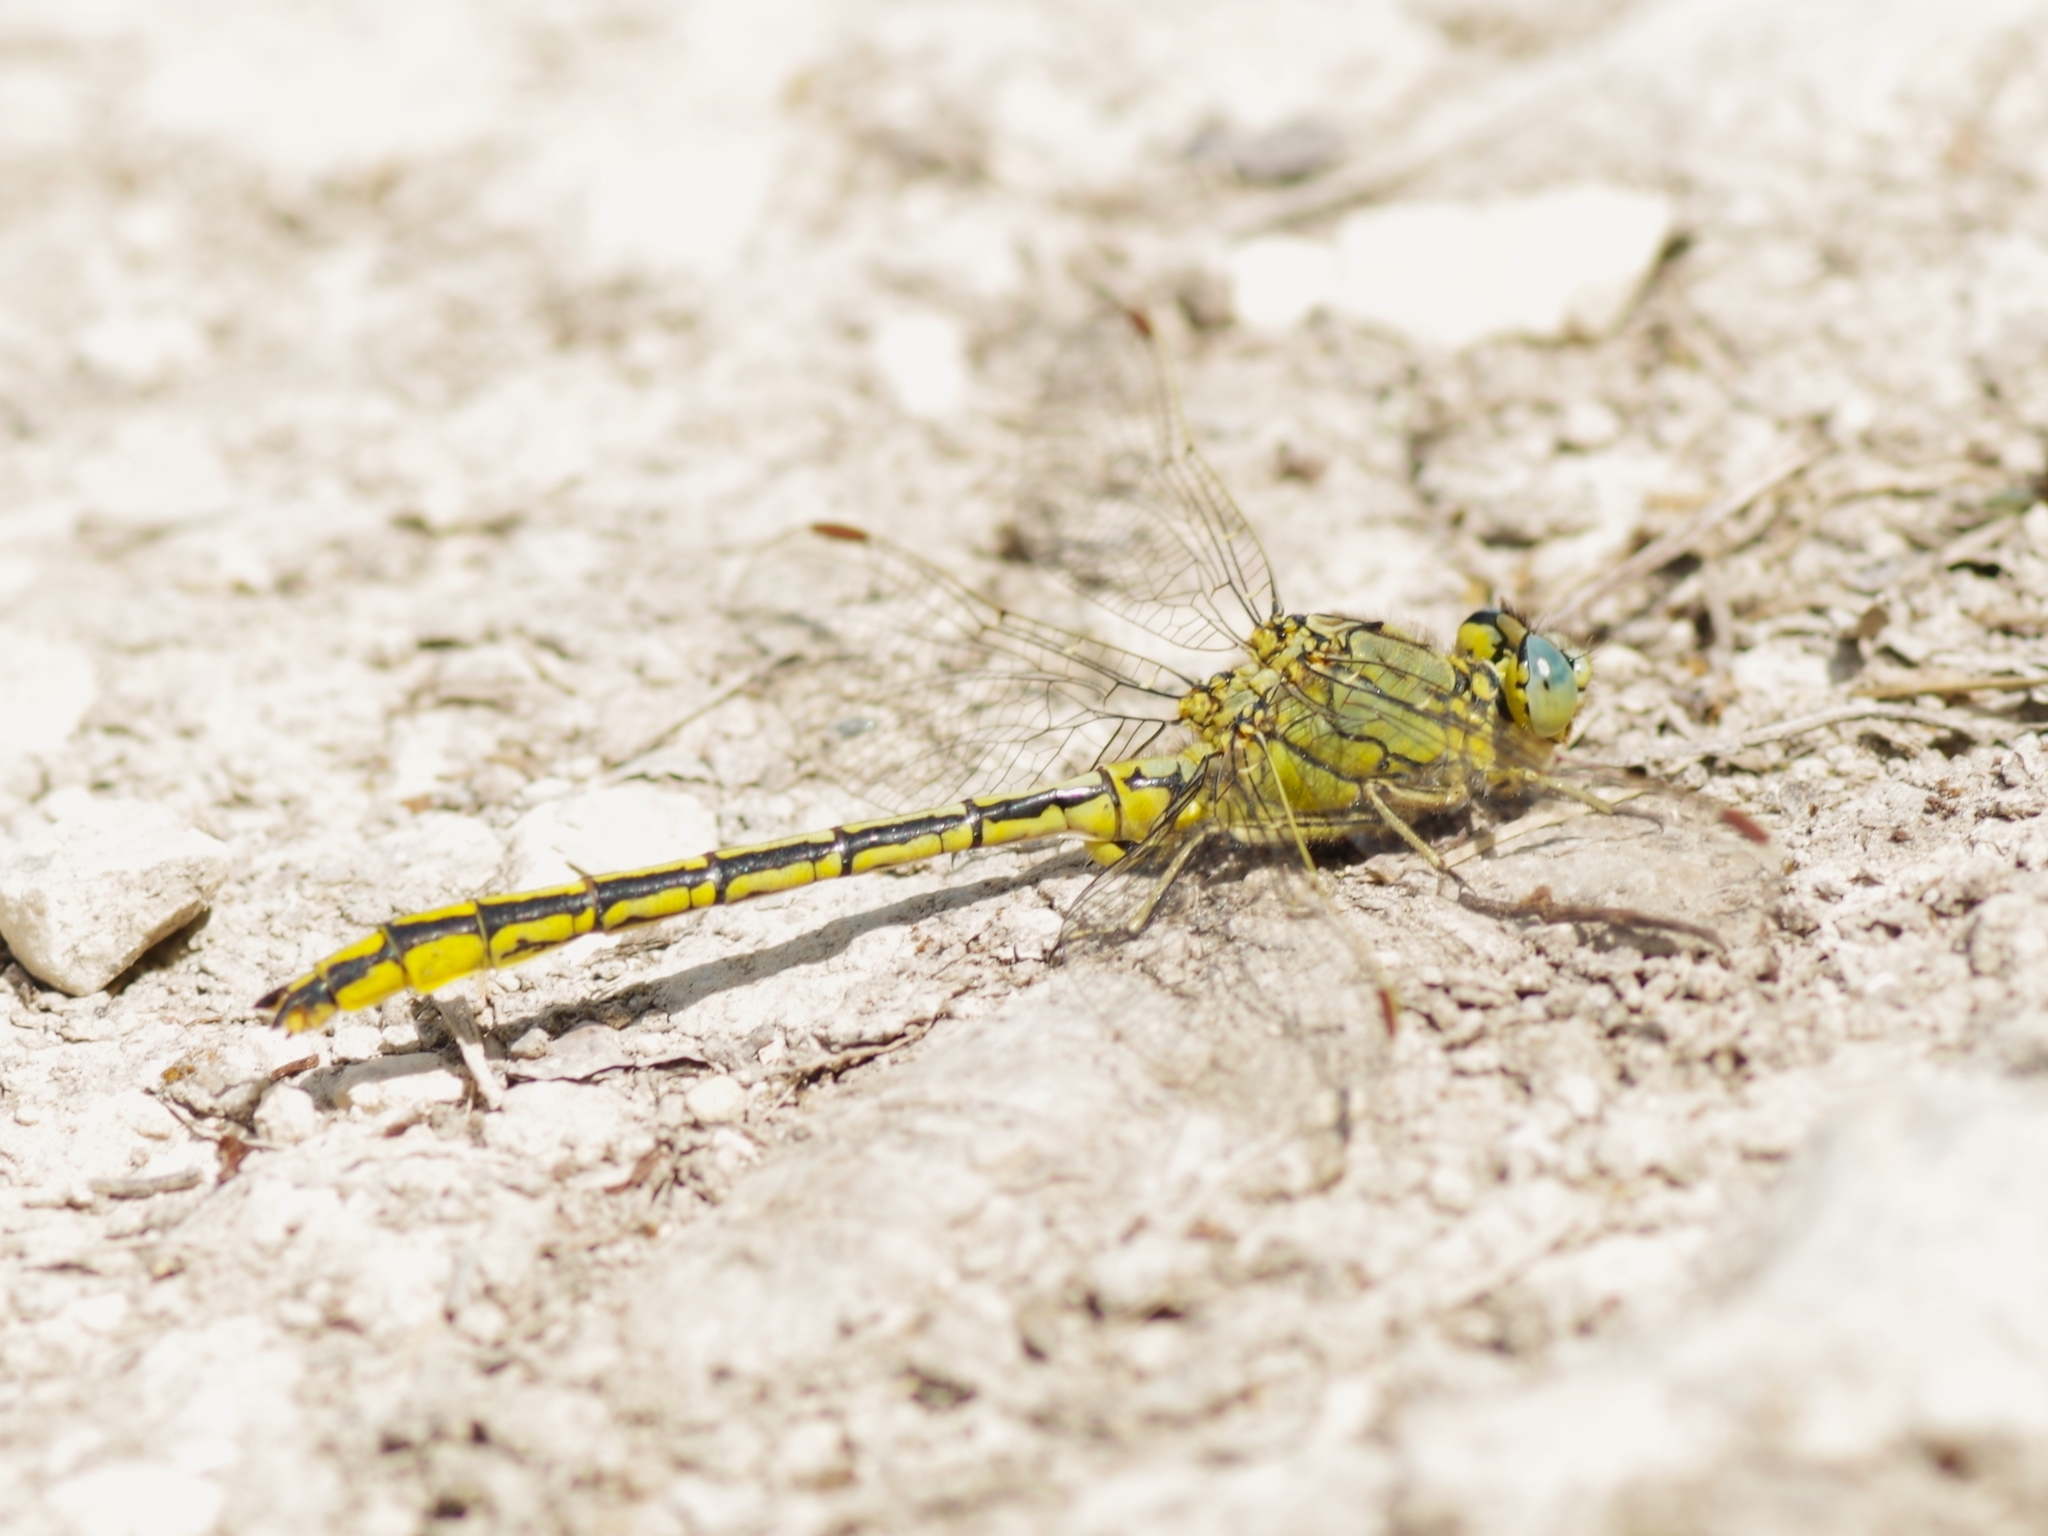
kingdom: Animalia
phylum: Arthropoda
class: Insecta
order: Odonata
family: Gomphidae
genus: Gomphus
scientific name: Gomphus pulchellus
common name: Western clubtail
